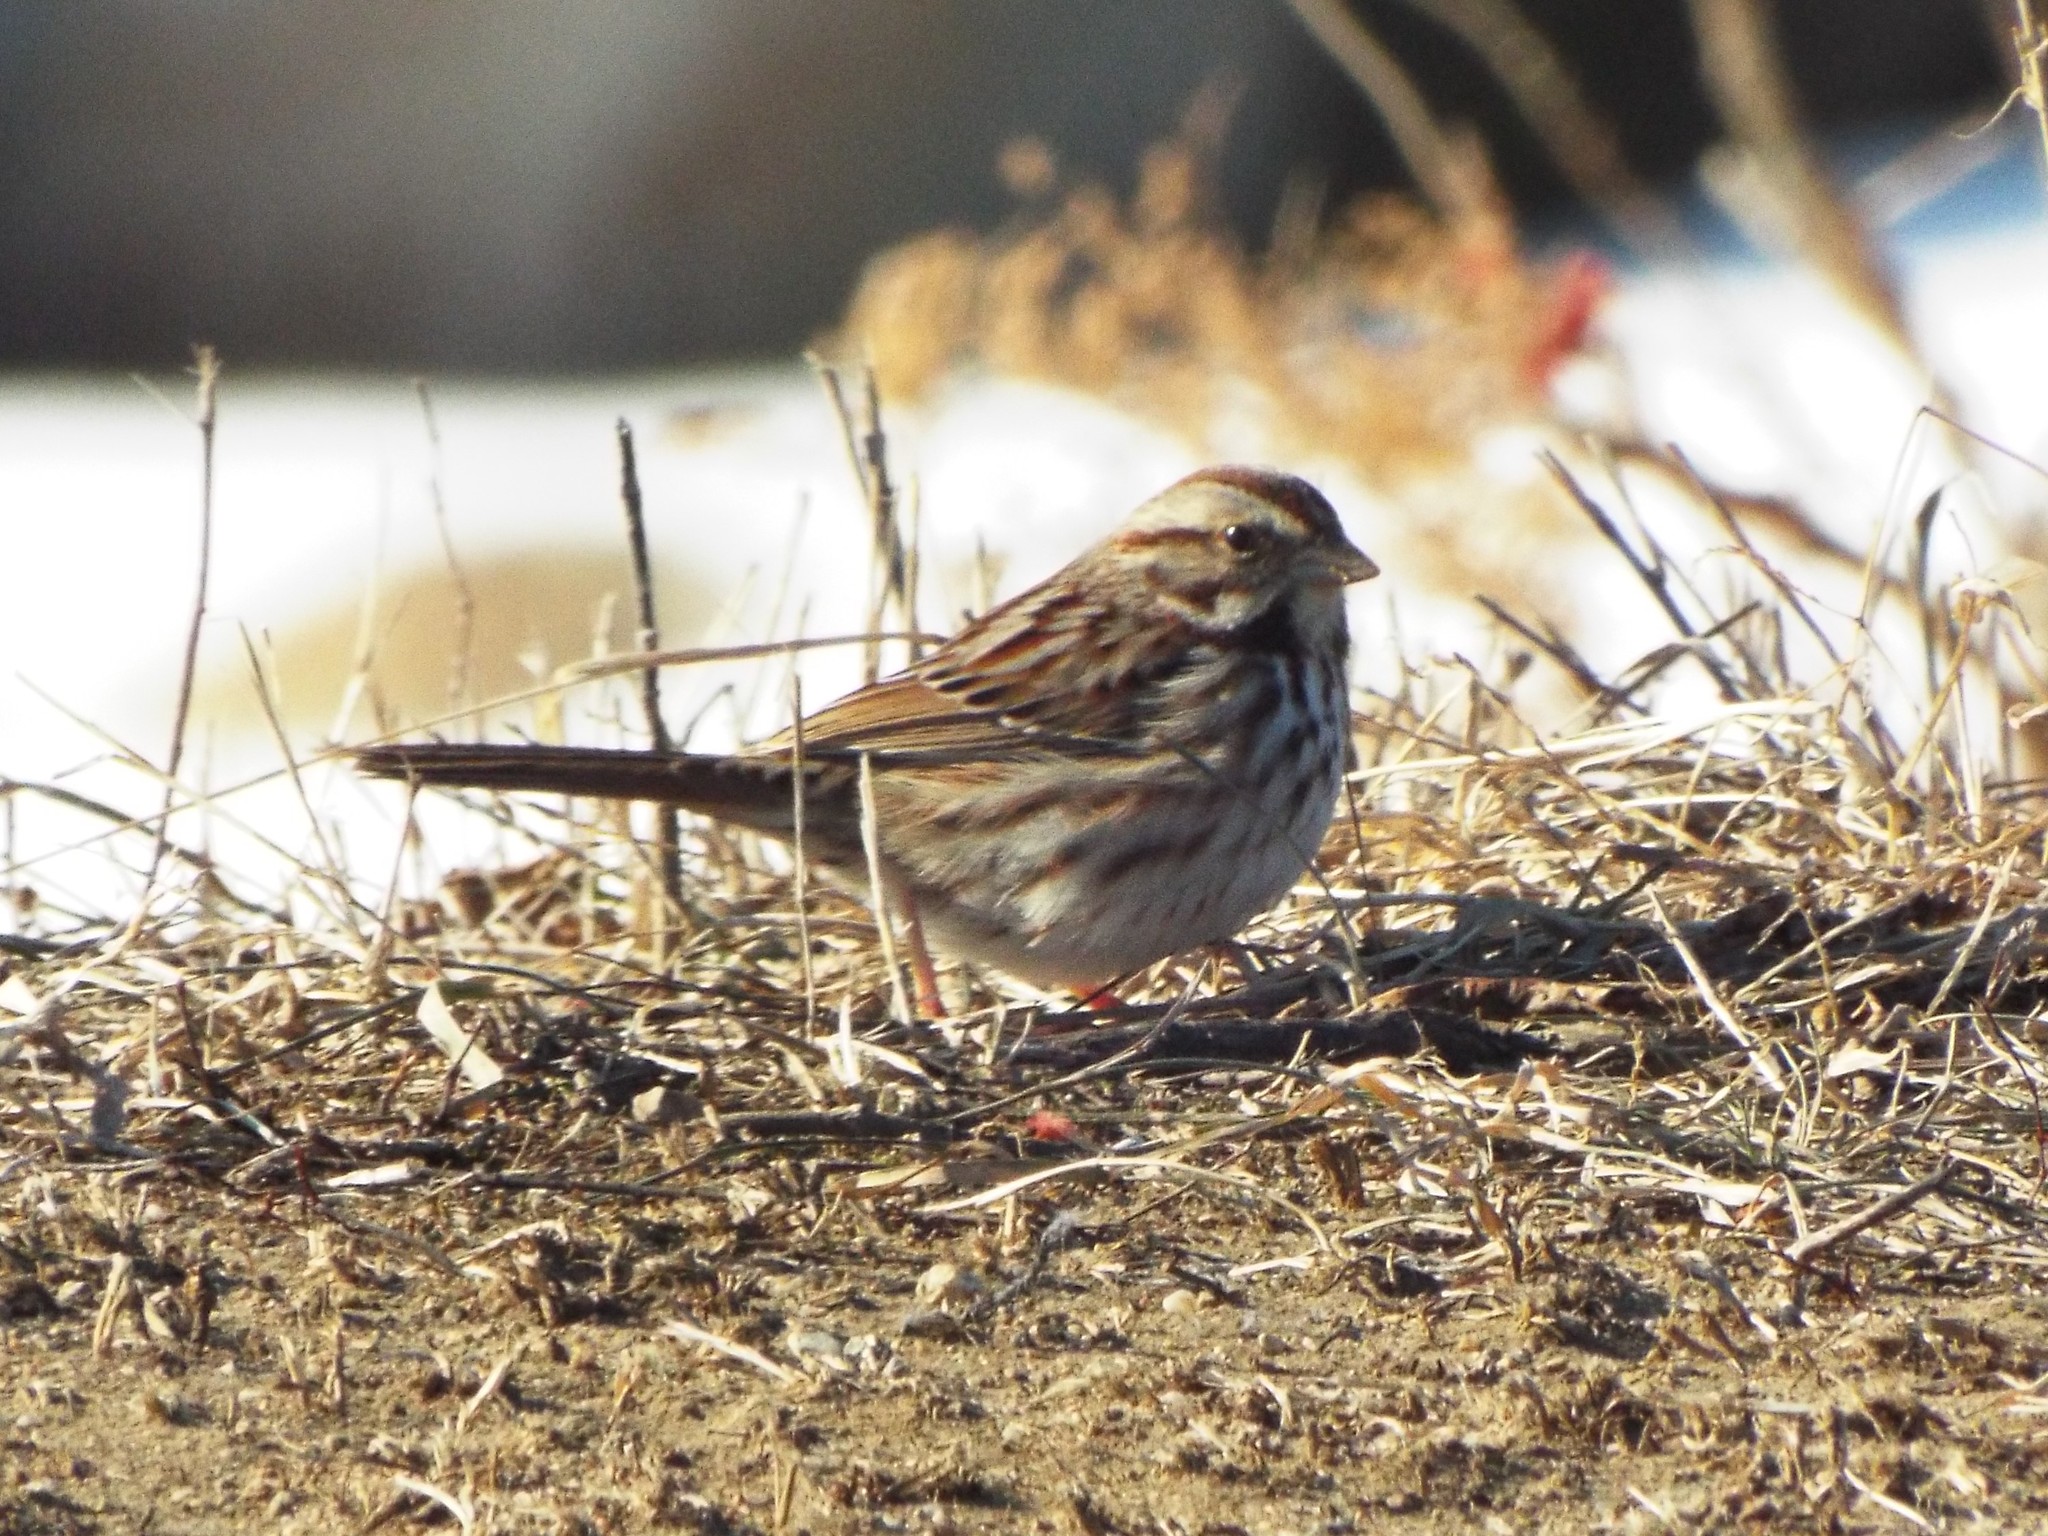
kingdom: Animalia
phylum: Chordata
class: Aves
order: Passeriformes
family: Passerellidae
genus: Melospiza
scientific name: Melospiza melodia
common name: Song sparrow
